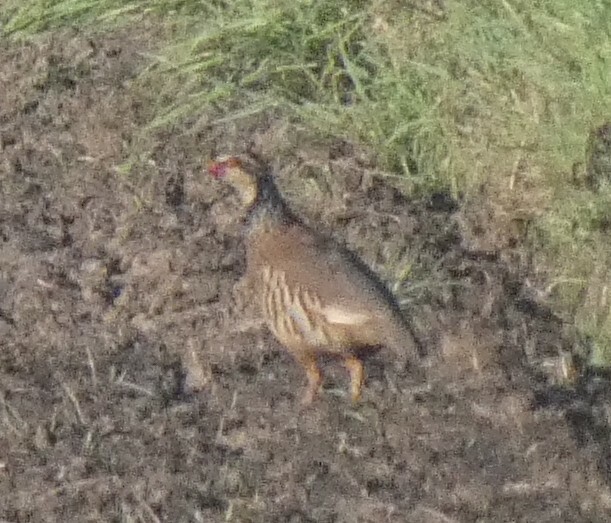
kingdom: Animalia
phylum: Chordata
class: Aves
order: Galliformes
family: Phasianidae
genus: Alectoris
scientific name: Alectoris rufa
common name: Red-legged partridge
